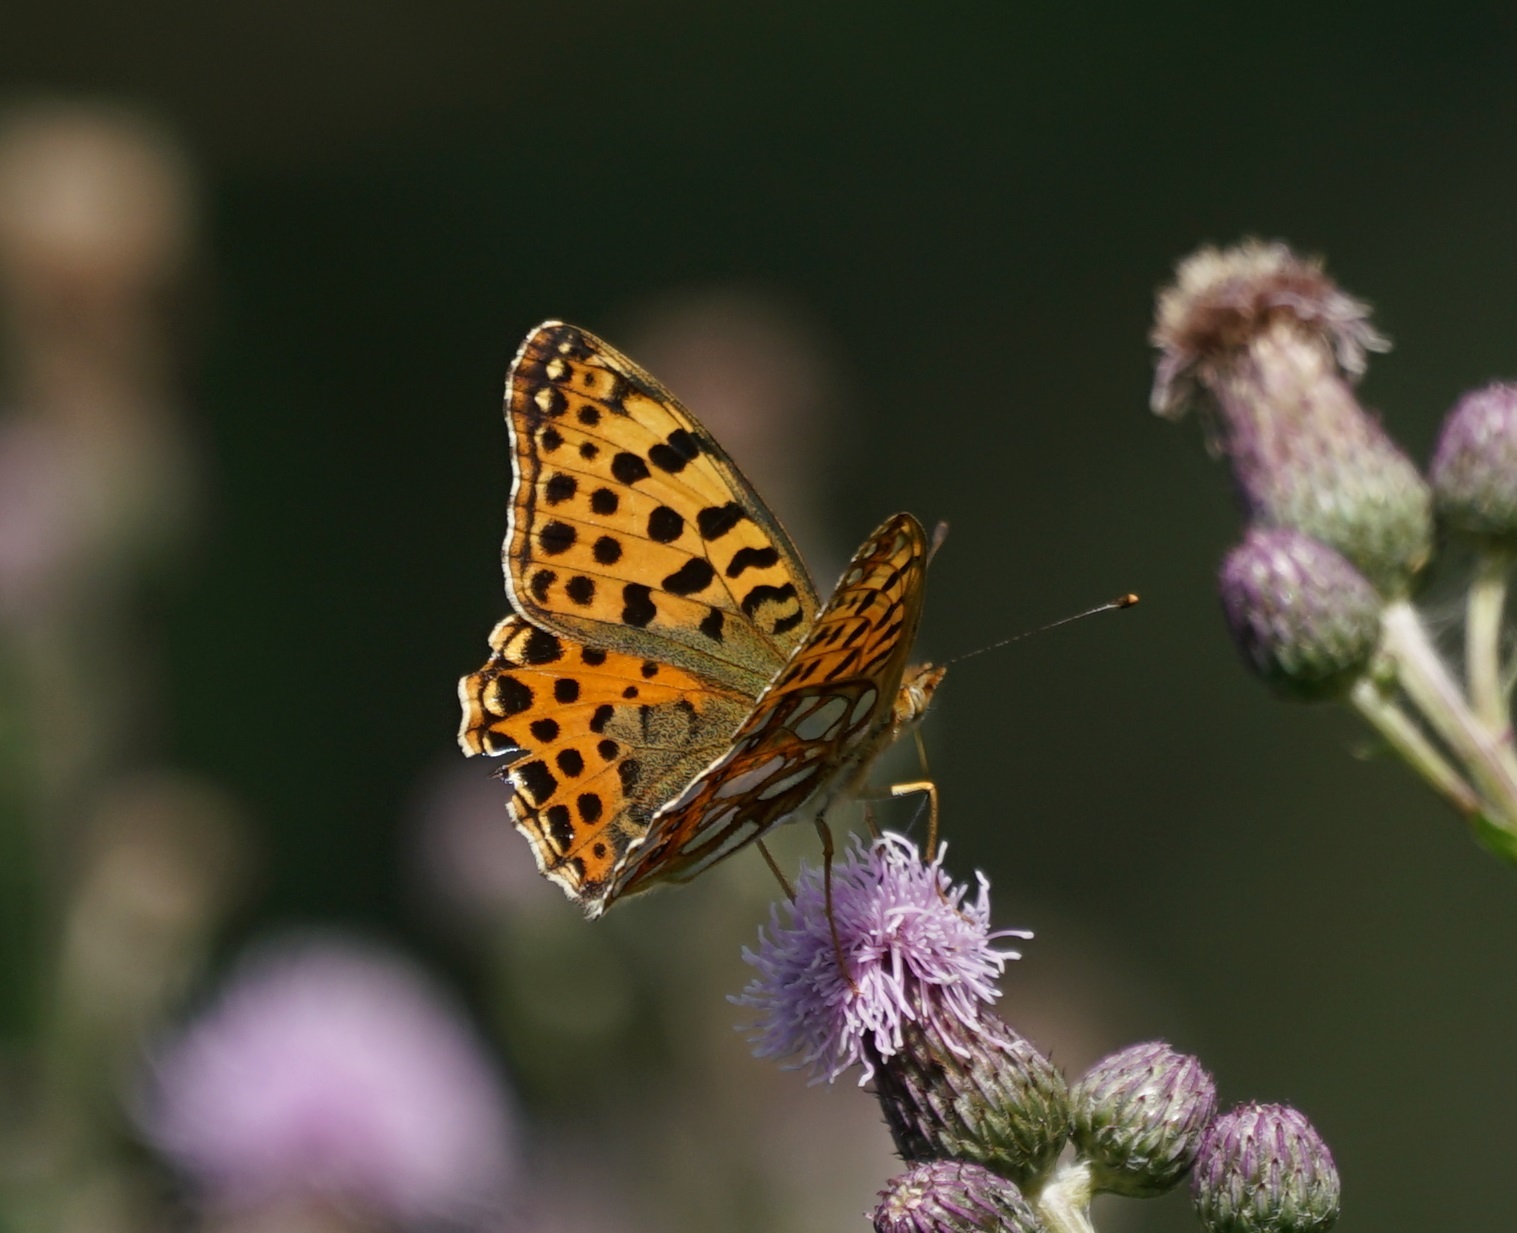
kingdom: Animalia
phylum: Arthropoda
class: Insecta
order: Lepidoptera
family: Nymphalidae
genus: Issoria
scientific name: Issoria lathonia
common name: Queen of spain fritillary
